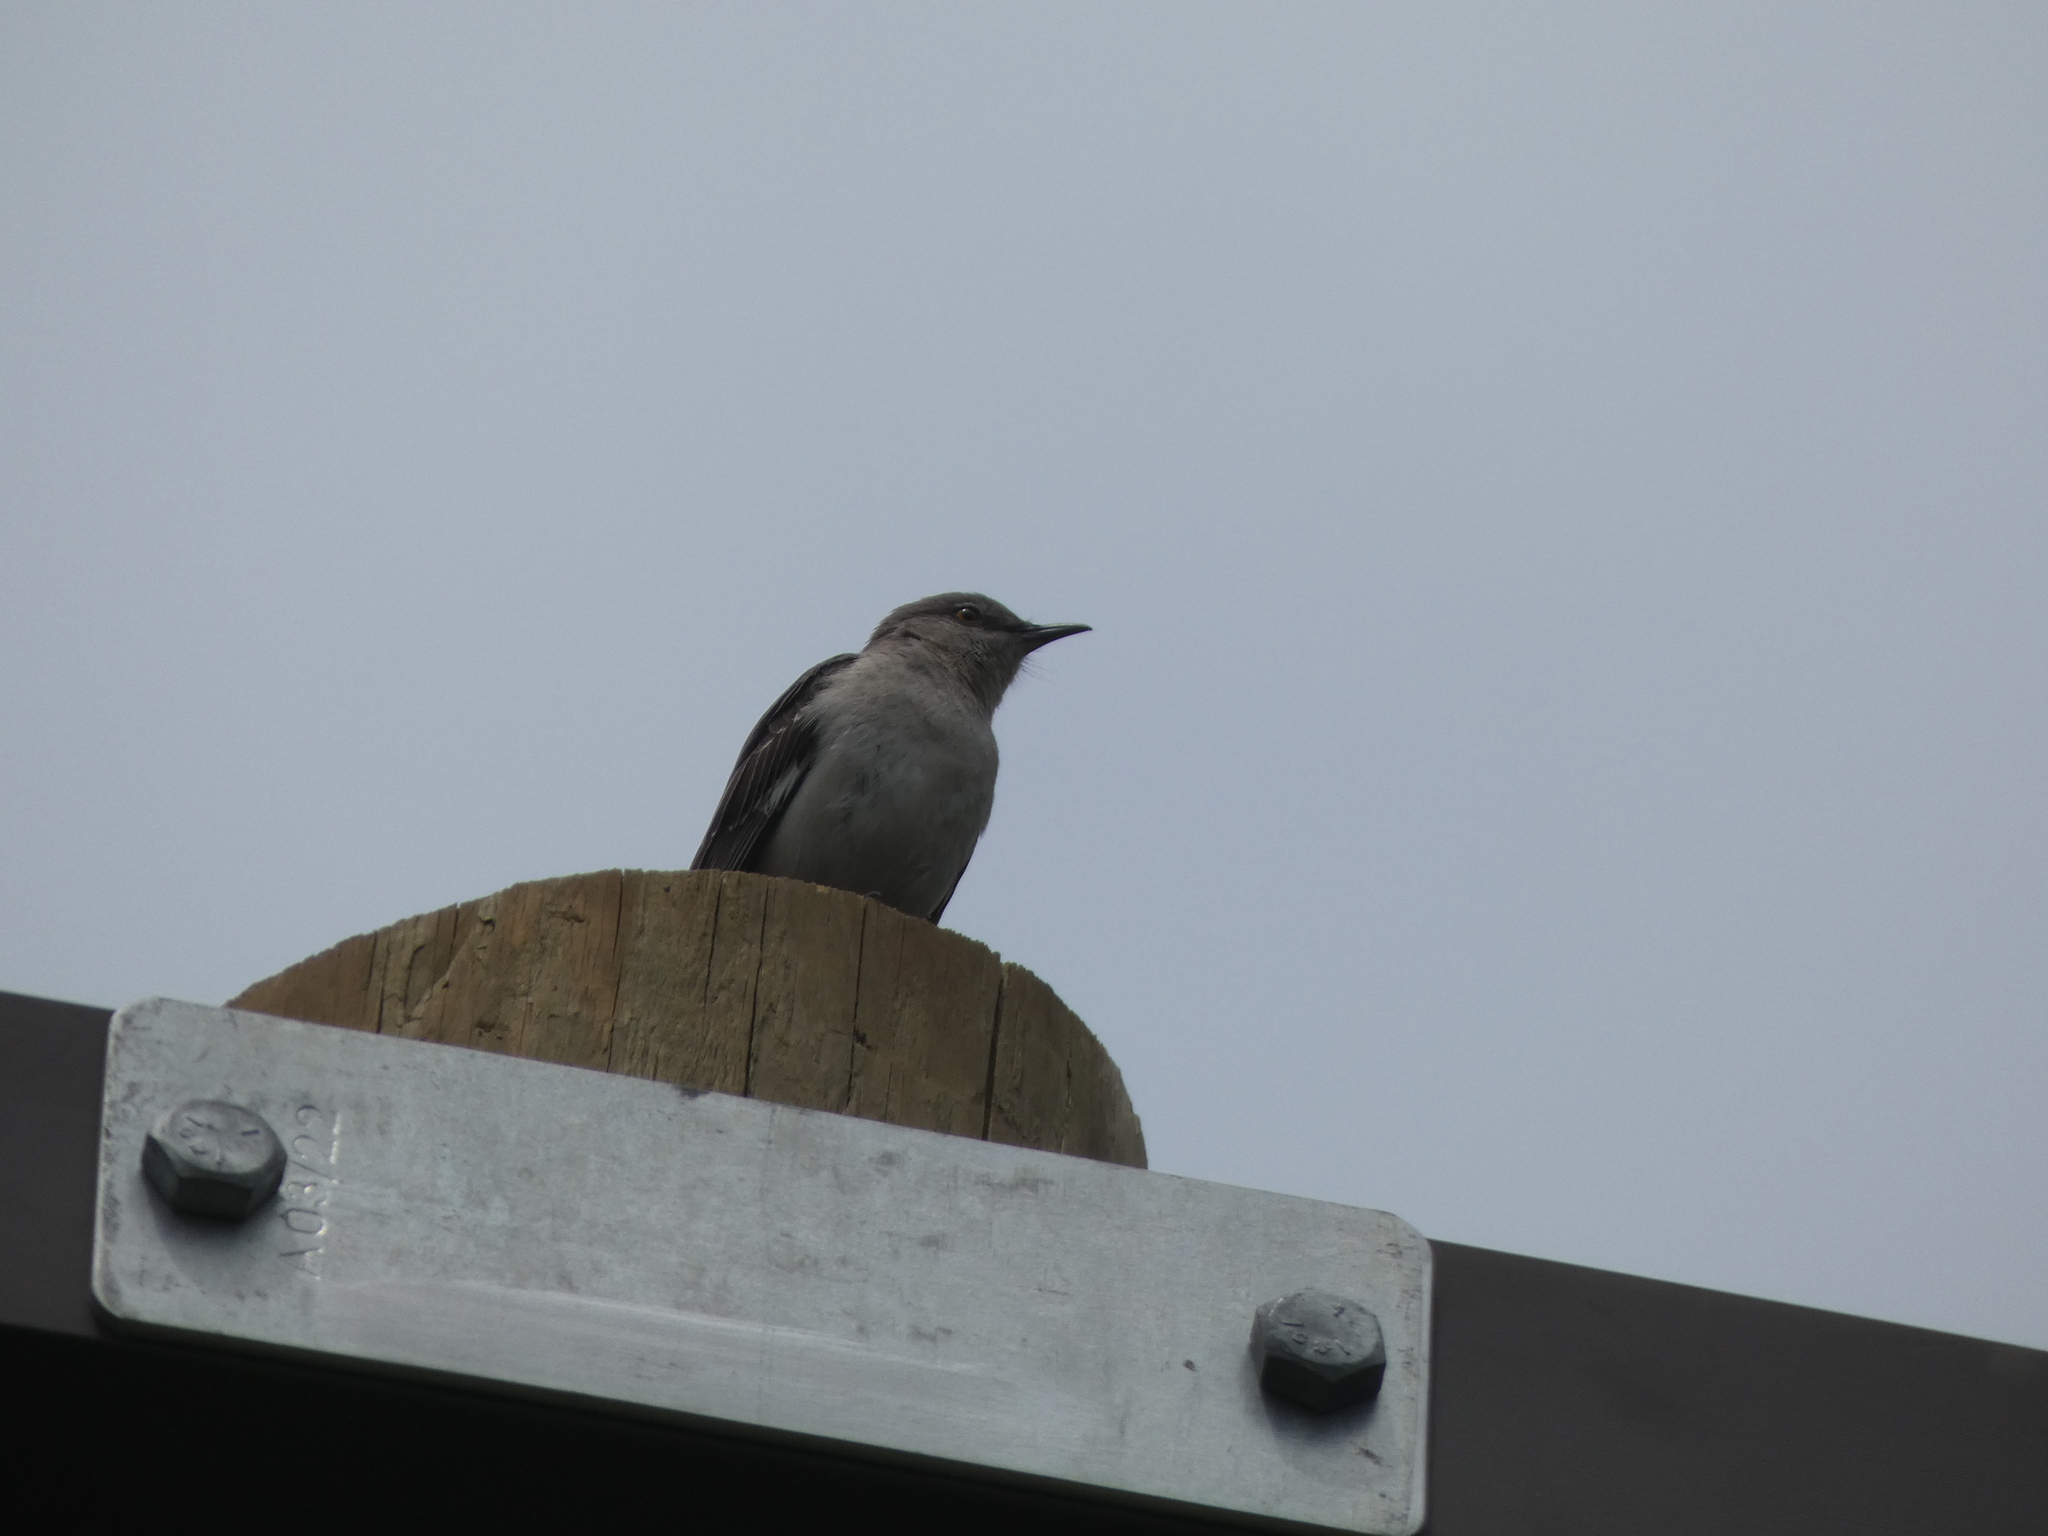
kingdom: Animalia
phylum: Chordata
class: Aves
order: Passeriformes
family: Mimidae
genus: Mimus
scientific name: Mimus polyglottos
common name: Northern mockingbird
